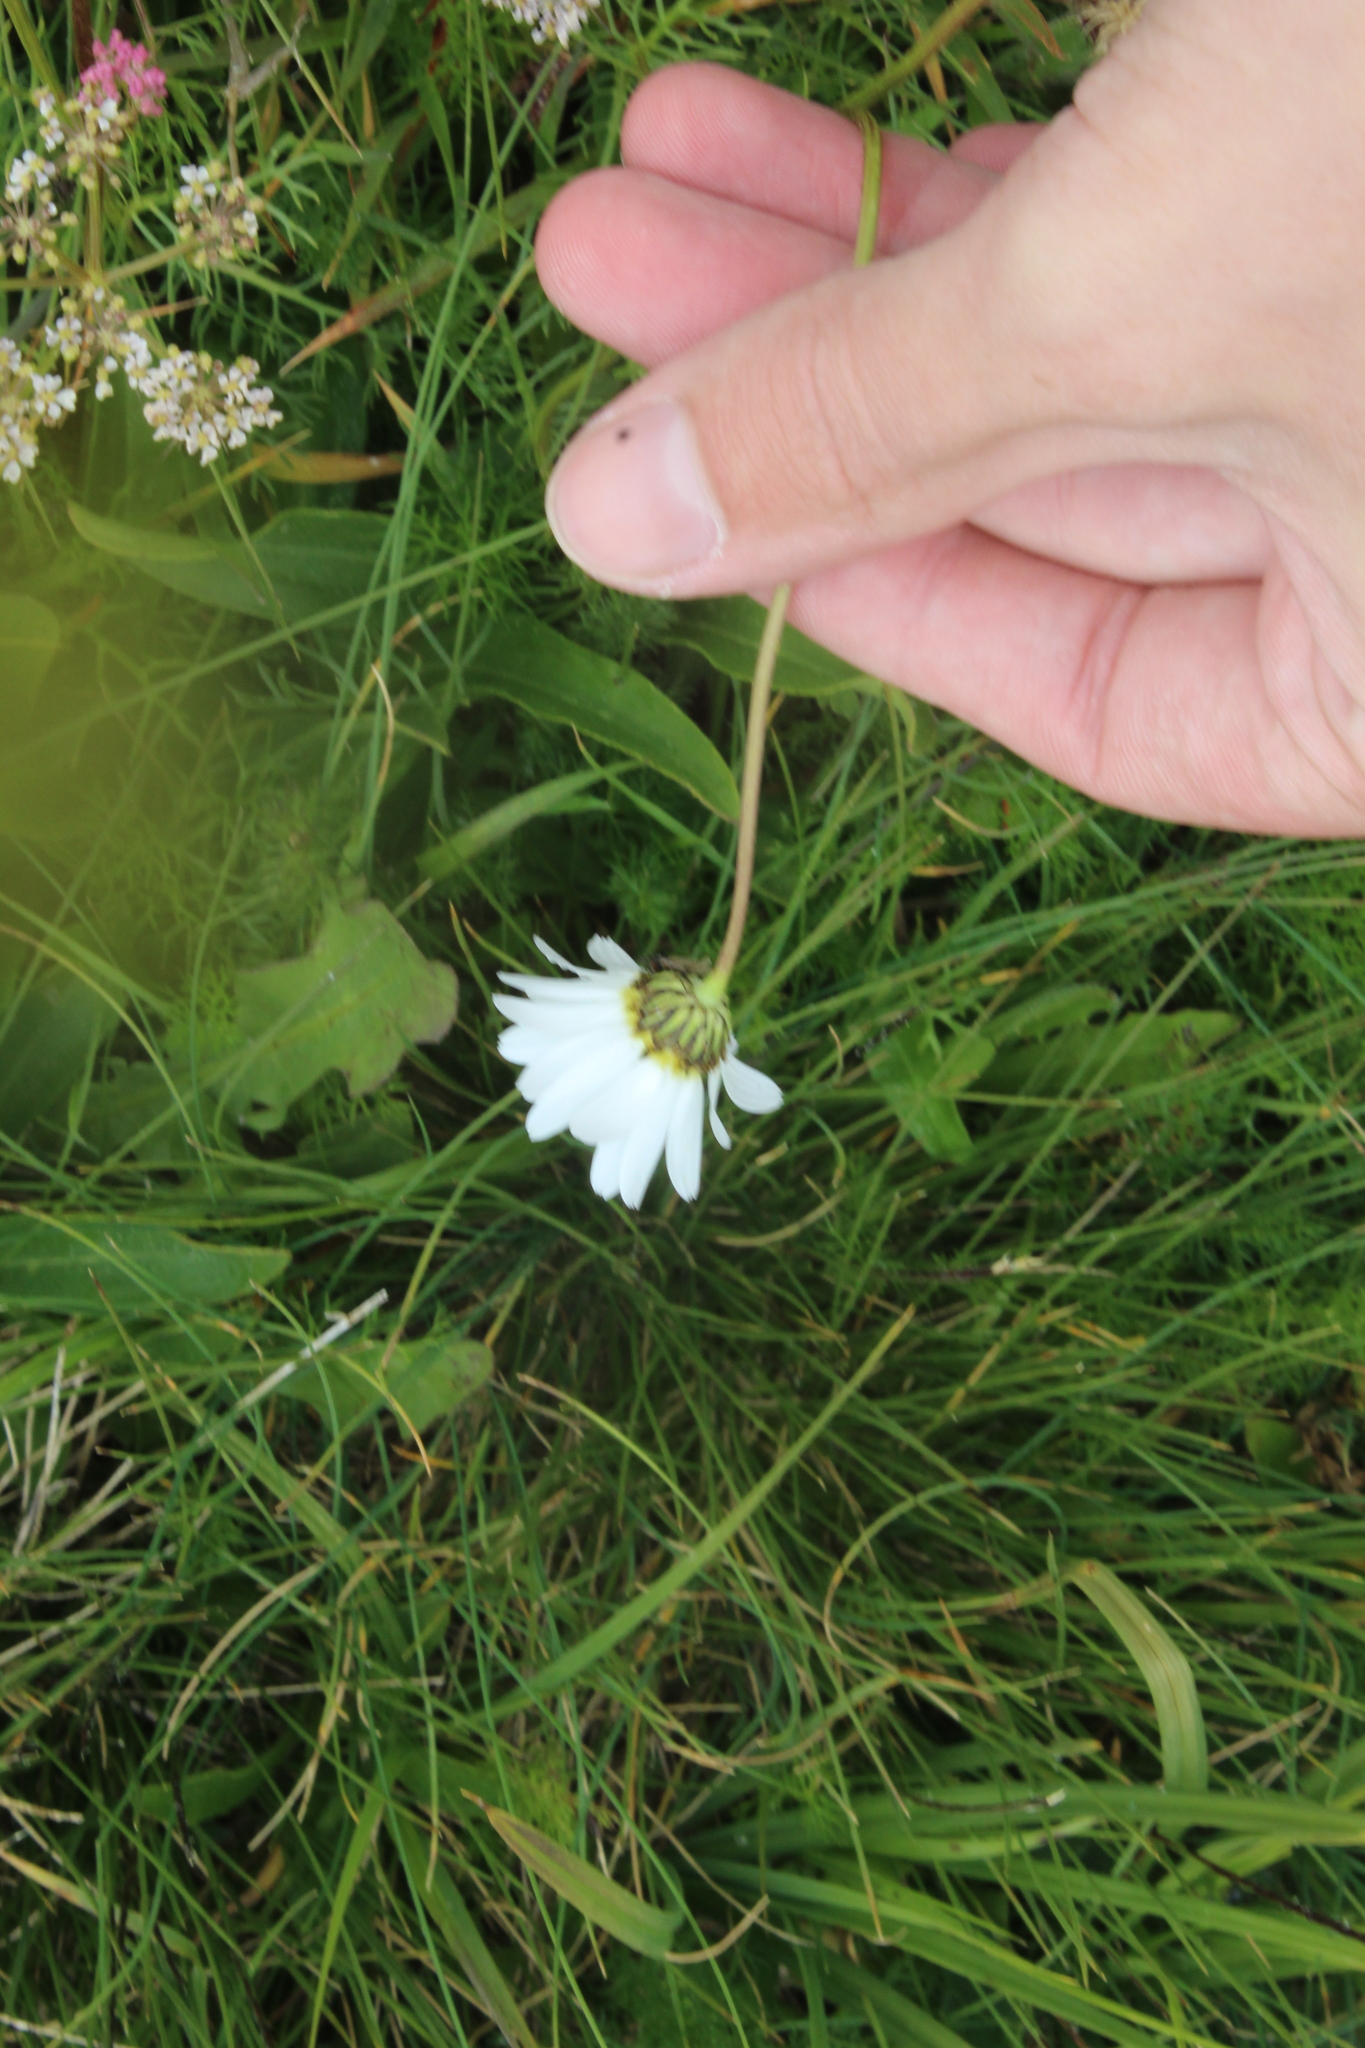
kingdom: Plantae
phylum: Tracheophyta
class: Magnoliopsida
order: Asterales
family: Asteraceae
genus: Tripleurospermum
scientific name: Tripleurospermum caucasicum
